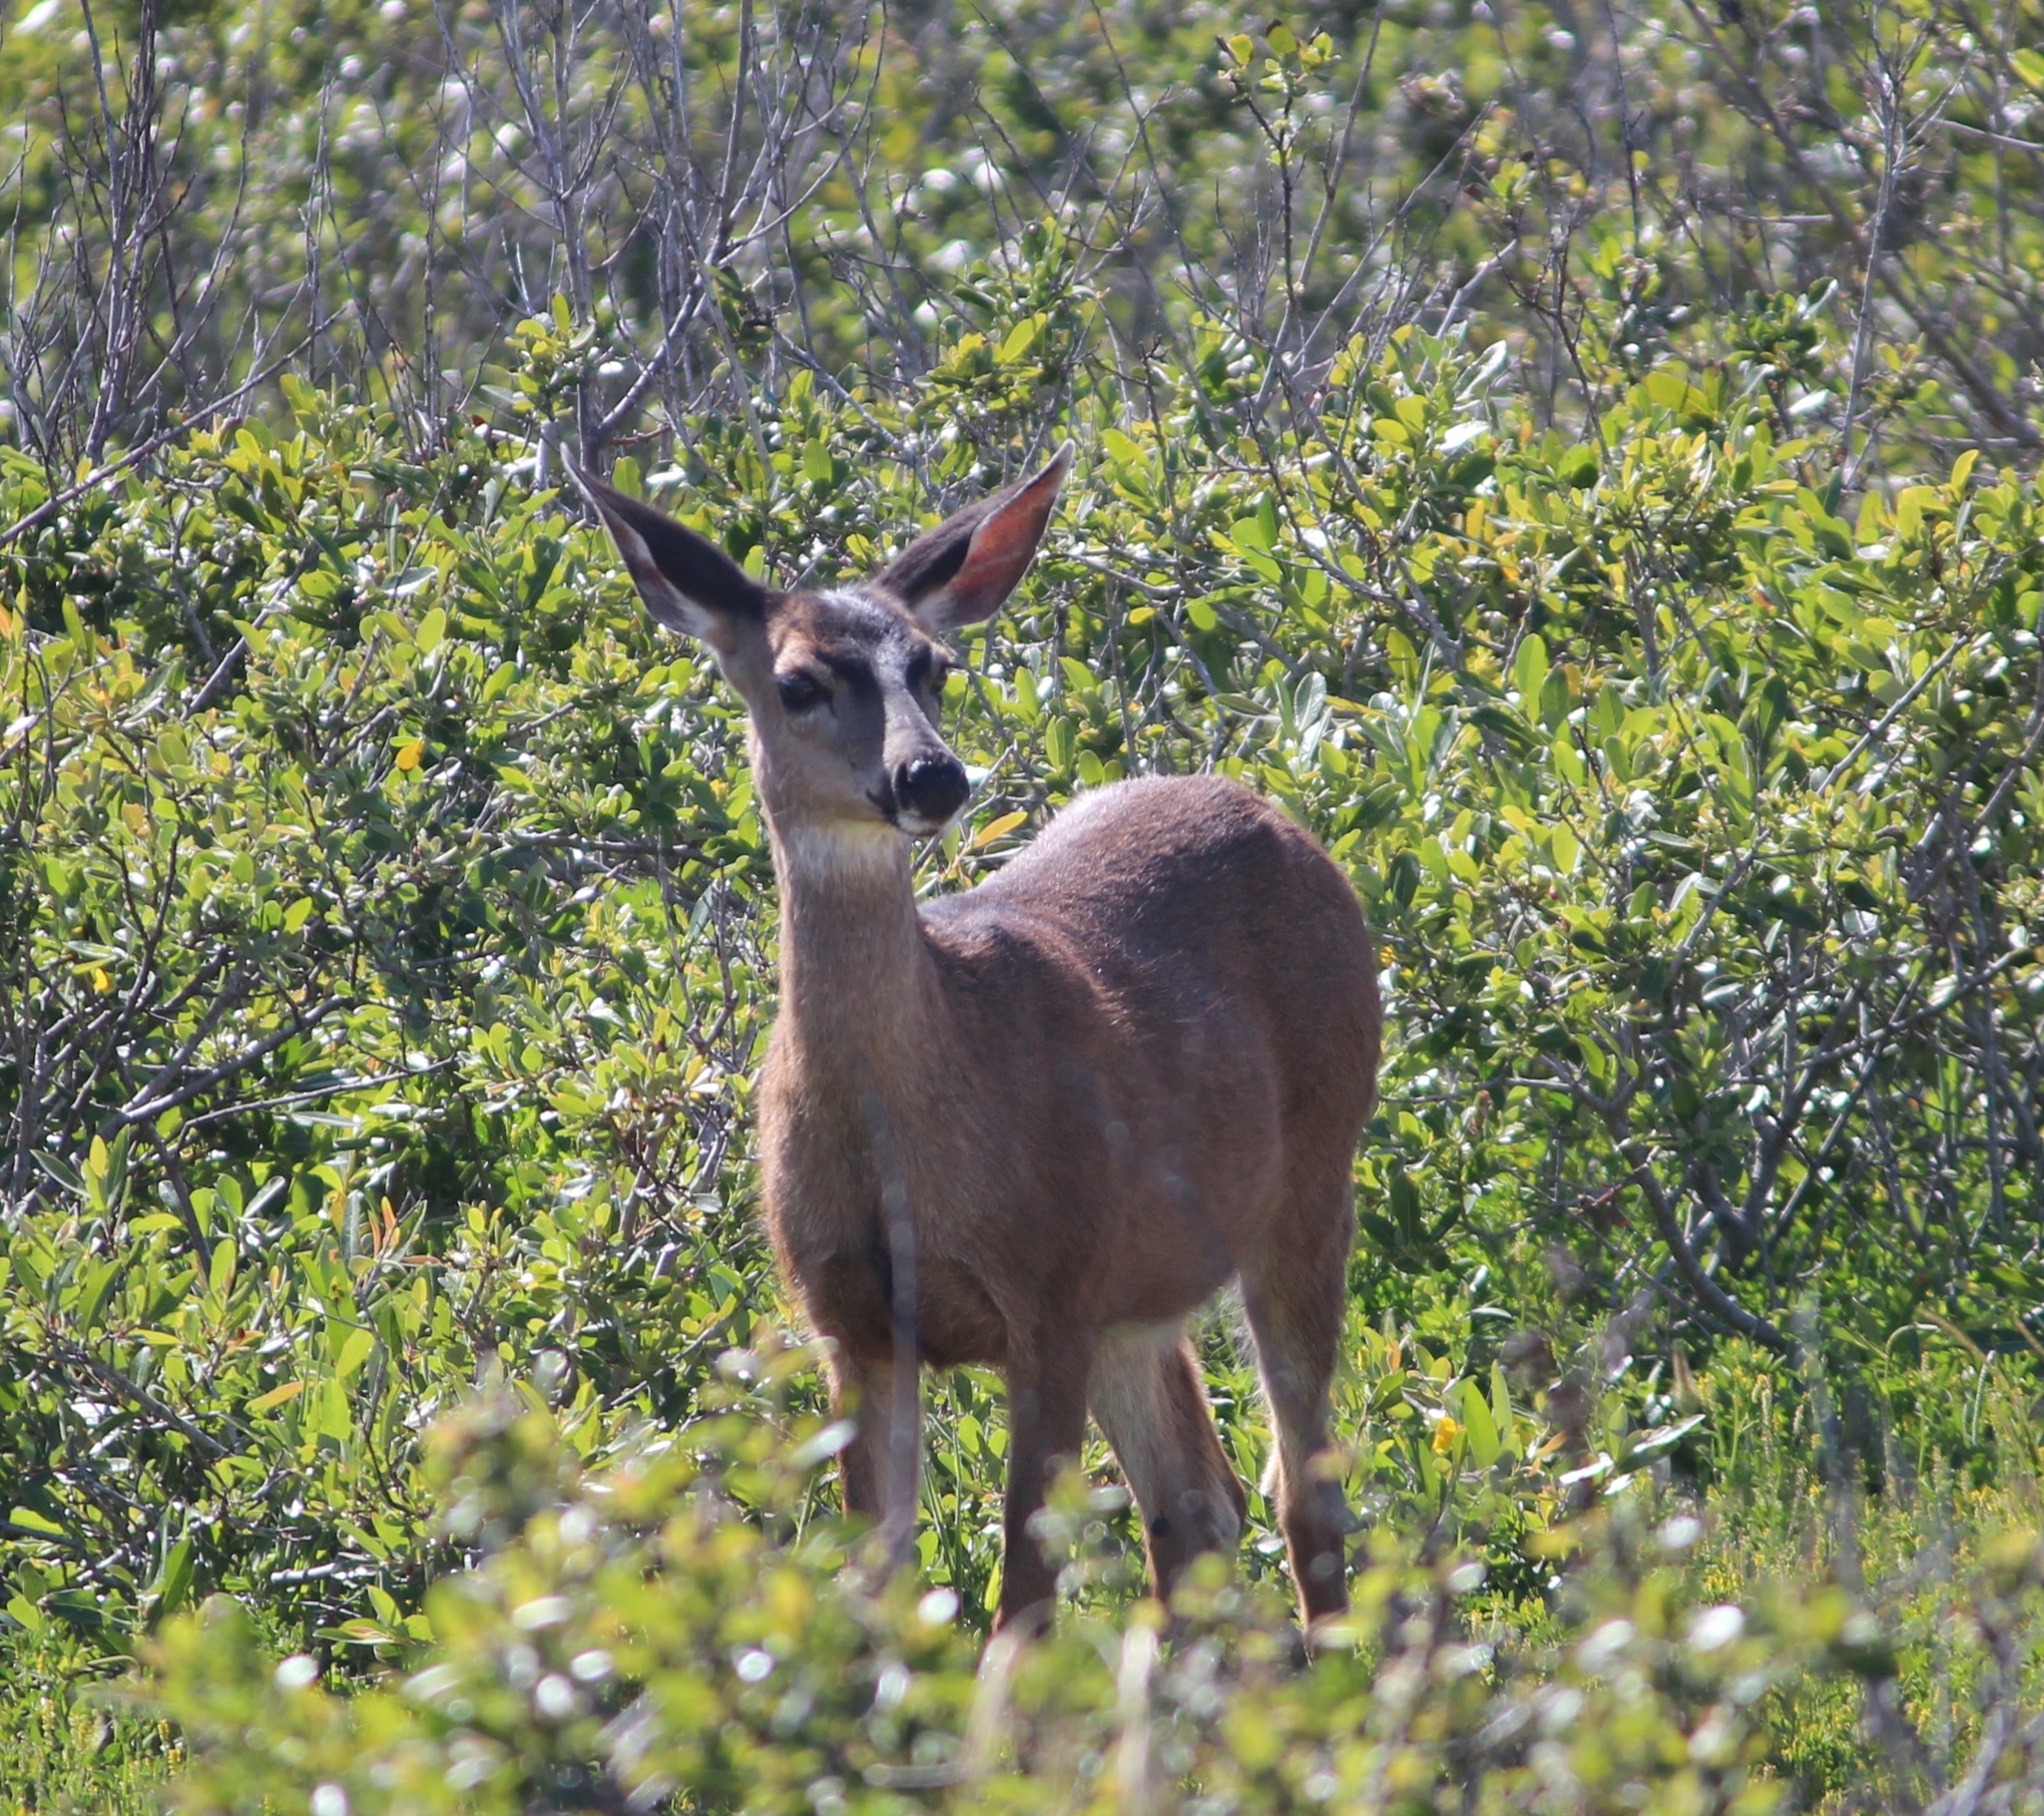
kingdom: Animalia
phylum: Chordata
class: Mammalia
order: Artiodactyla
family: Cervidae
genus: Odocoileus
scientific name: Odocoileus hemionus
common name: Mule deer
